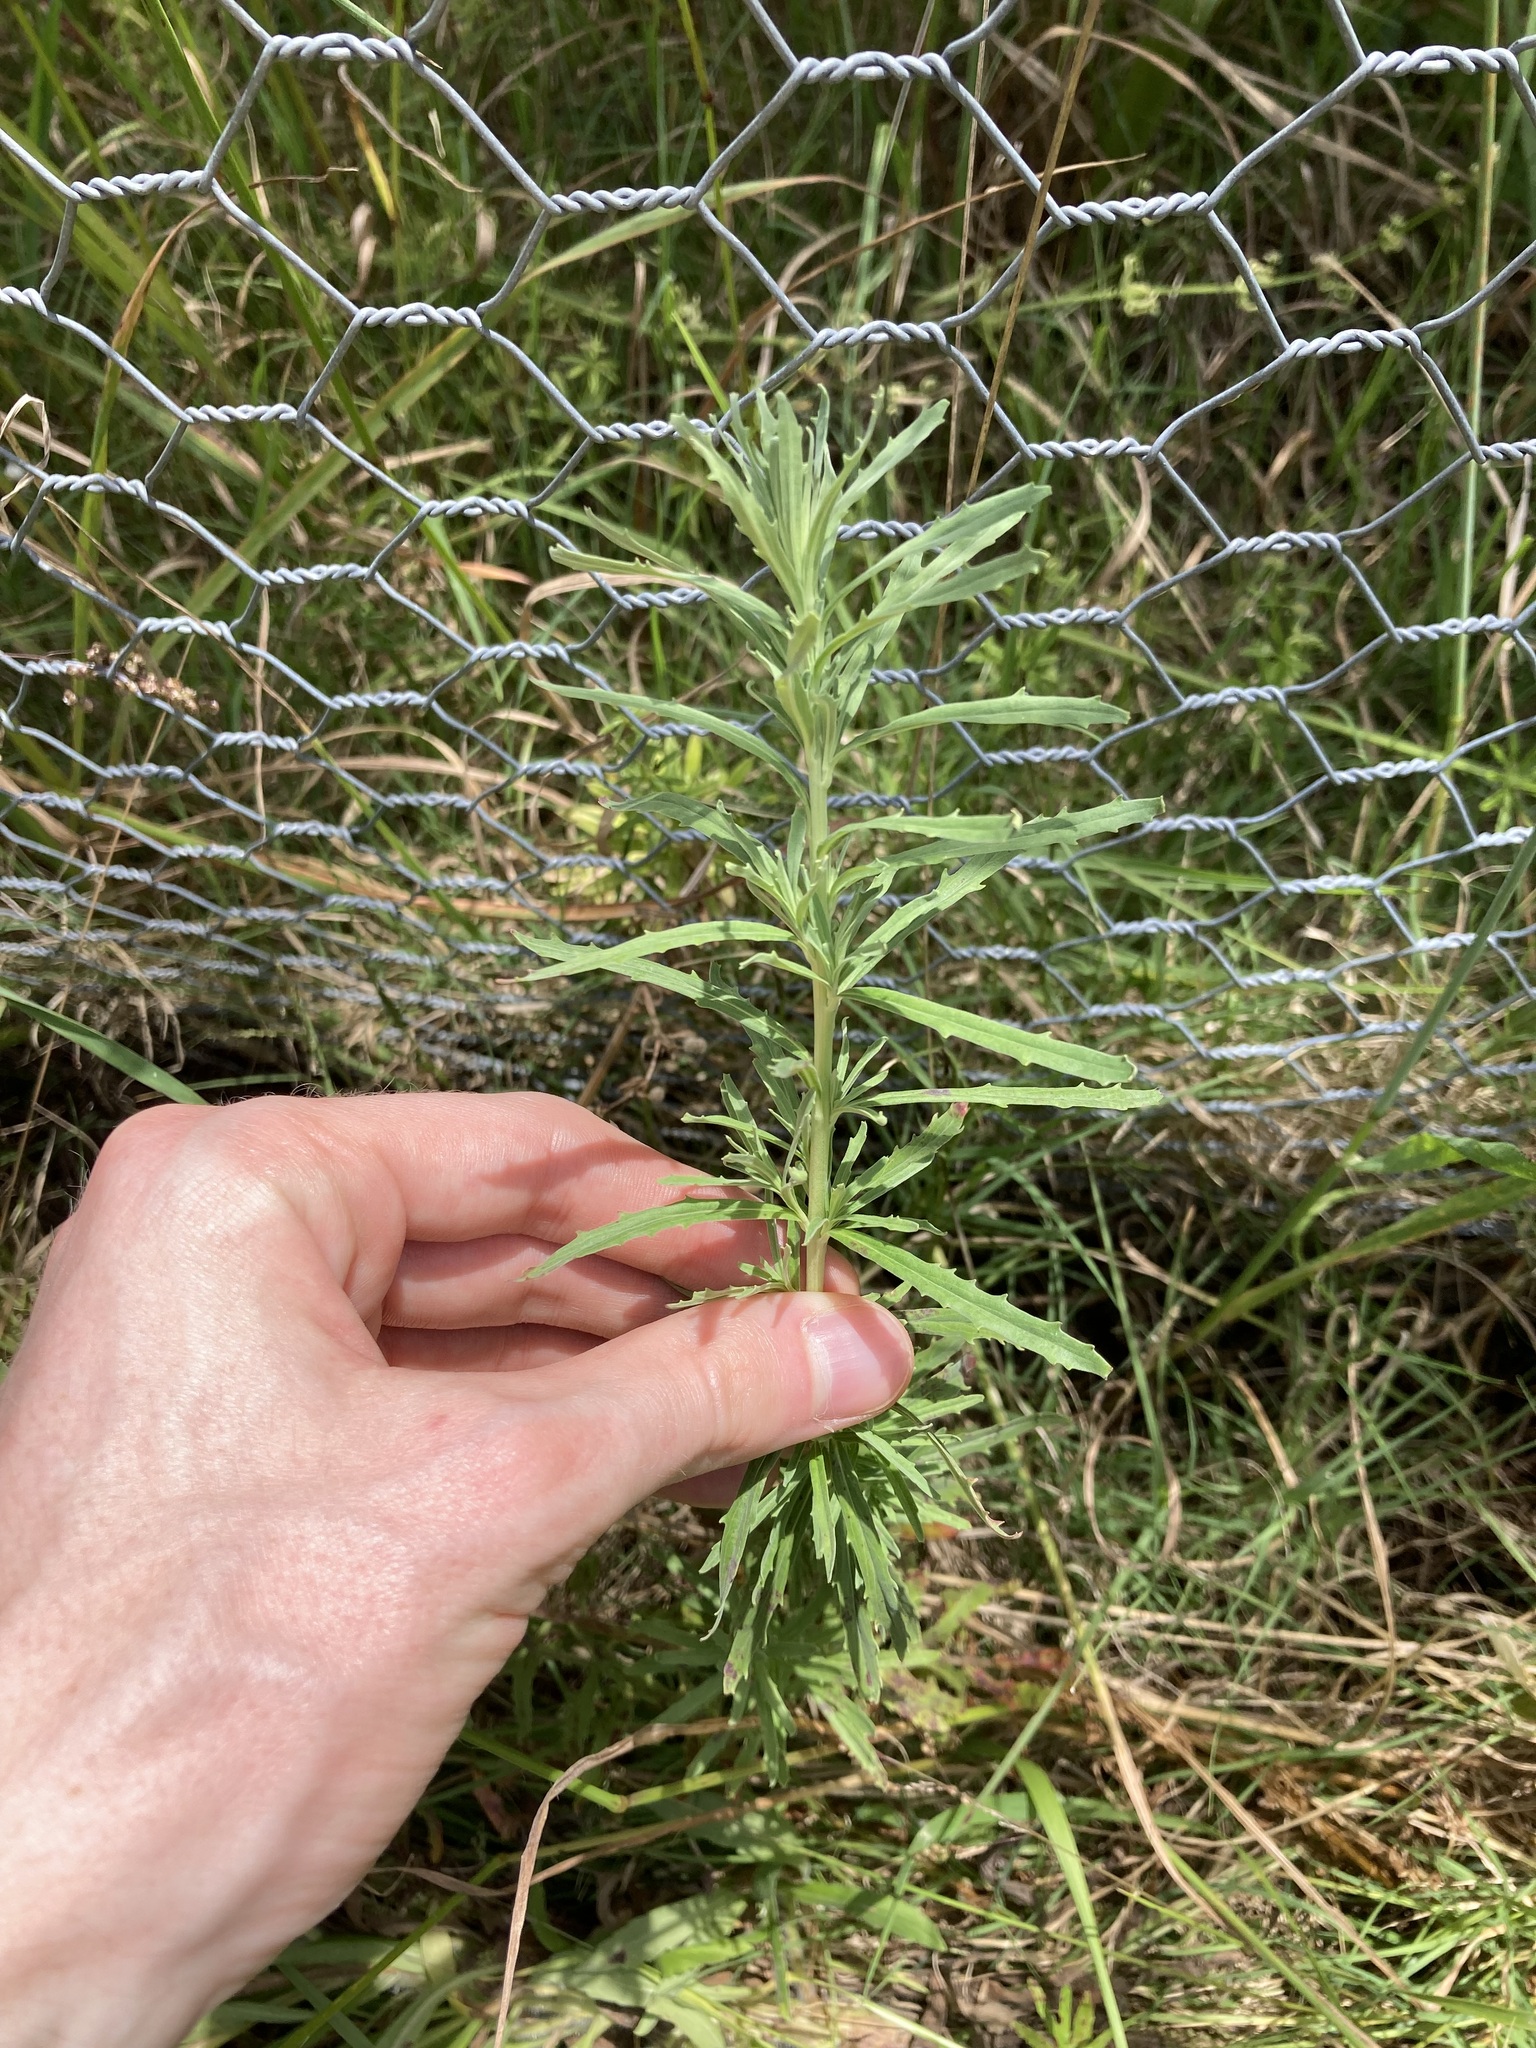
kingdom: Plantae
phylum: Tracheophyta
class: Magnoliopsida
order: Myrtales
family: Onagraceae
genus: Epilobium
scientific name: Epilobium billardierianum
